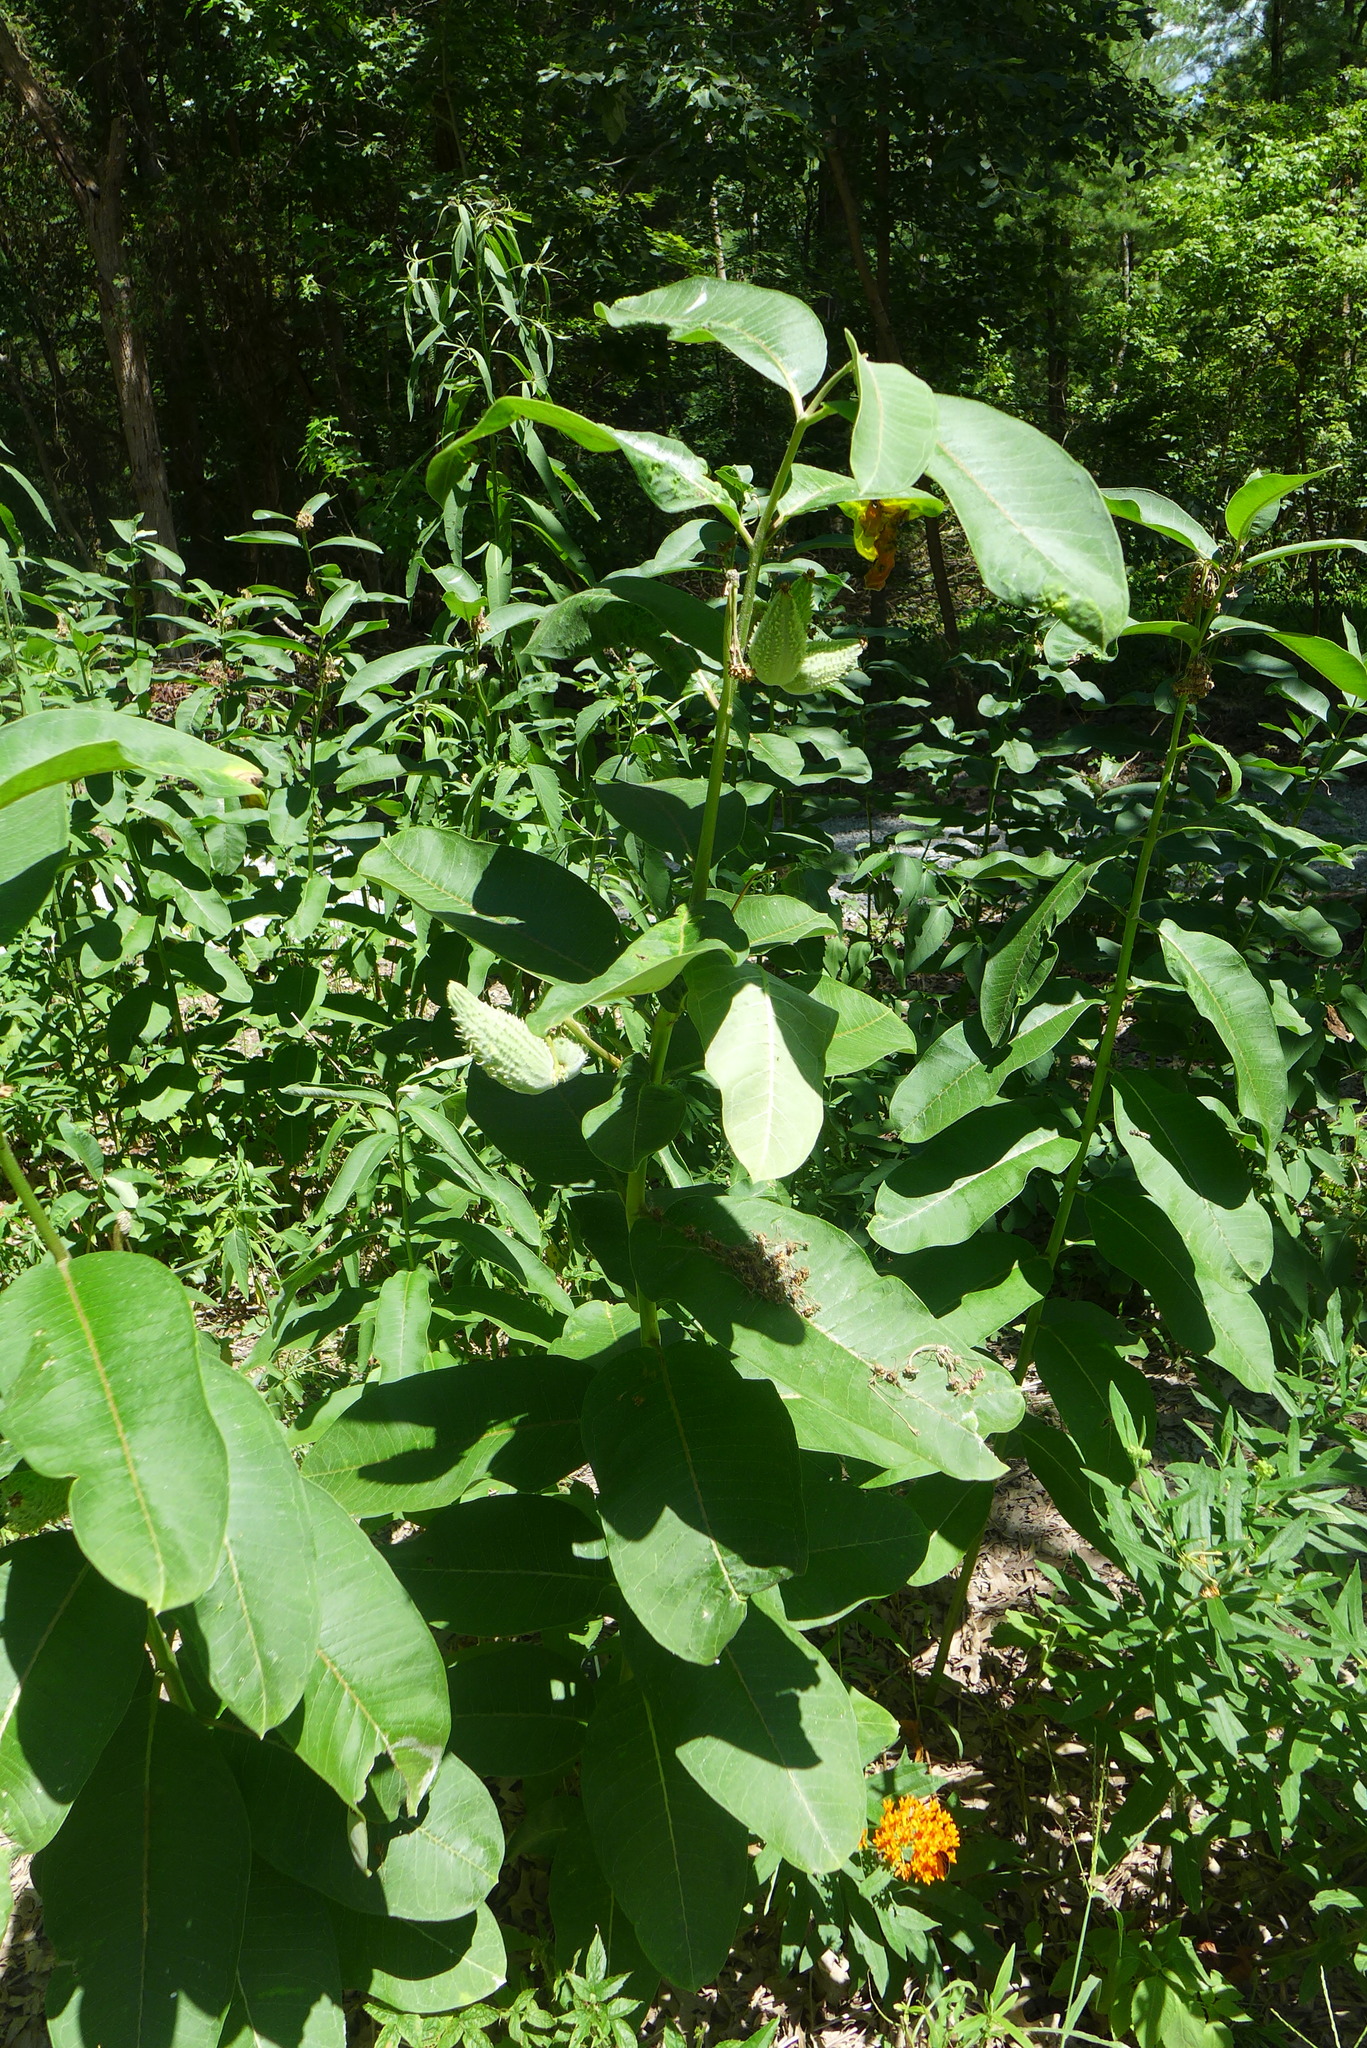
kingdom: Plantae
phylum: Tracheophyta
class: Magnoliopsida
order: Gentianales
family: Apocynaceae
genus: Asclepias
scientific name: Asclepias syriaca
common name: Common milkweed
